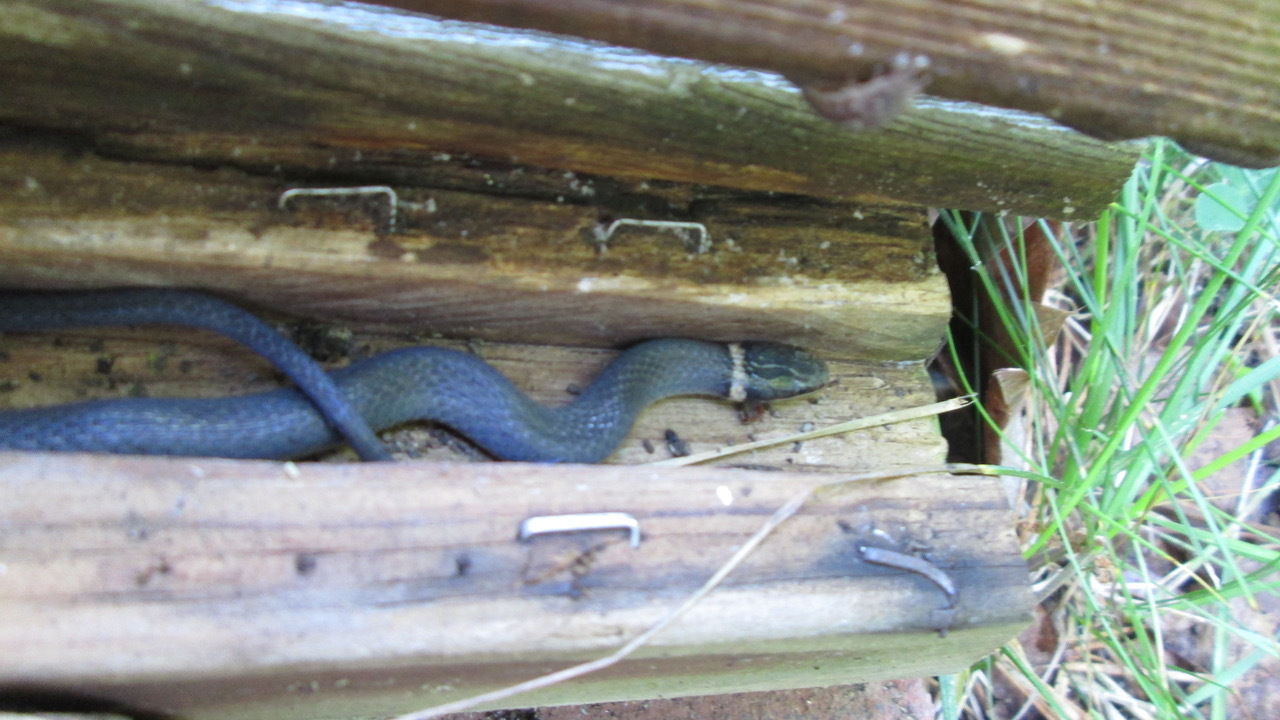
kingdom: Animalia
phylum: Chordata
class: Squamata
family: Colubridae
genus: Diadophis
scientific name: Diadophis punctatus
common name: Ringneck snake
